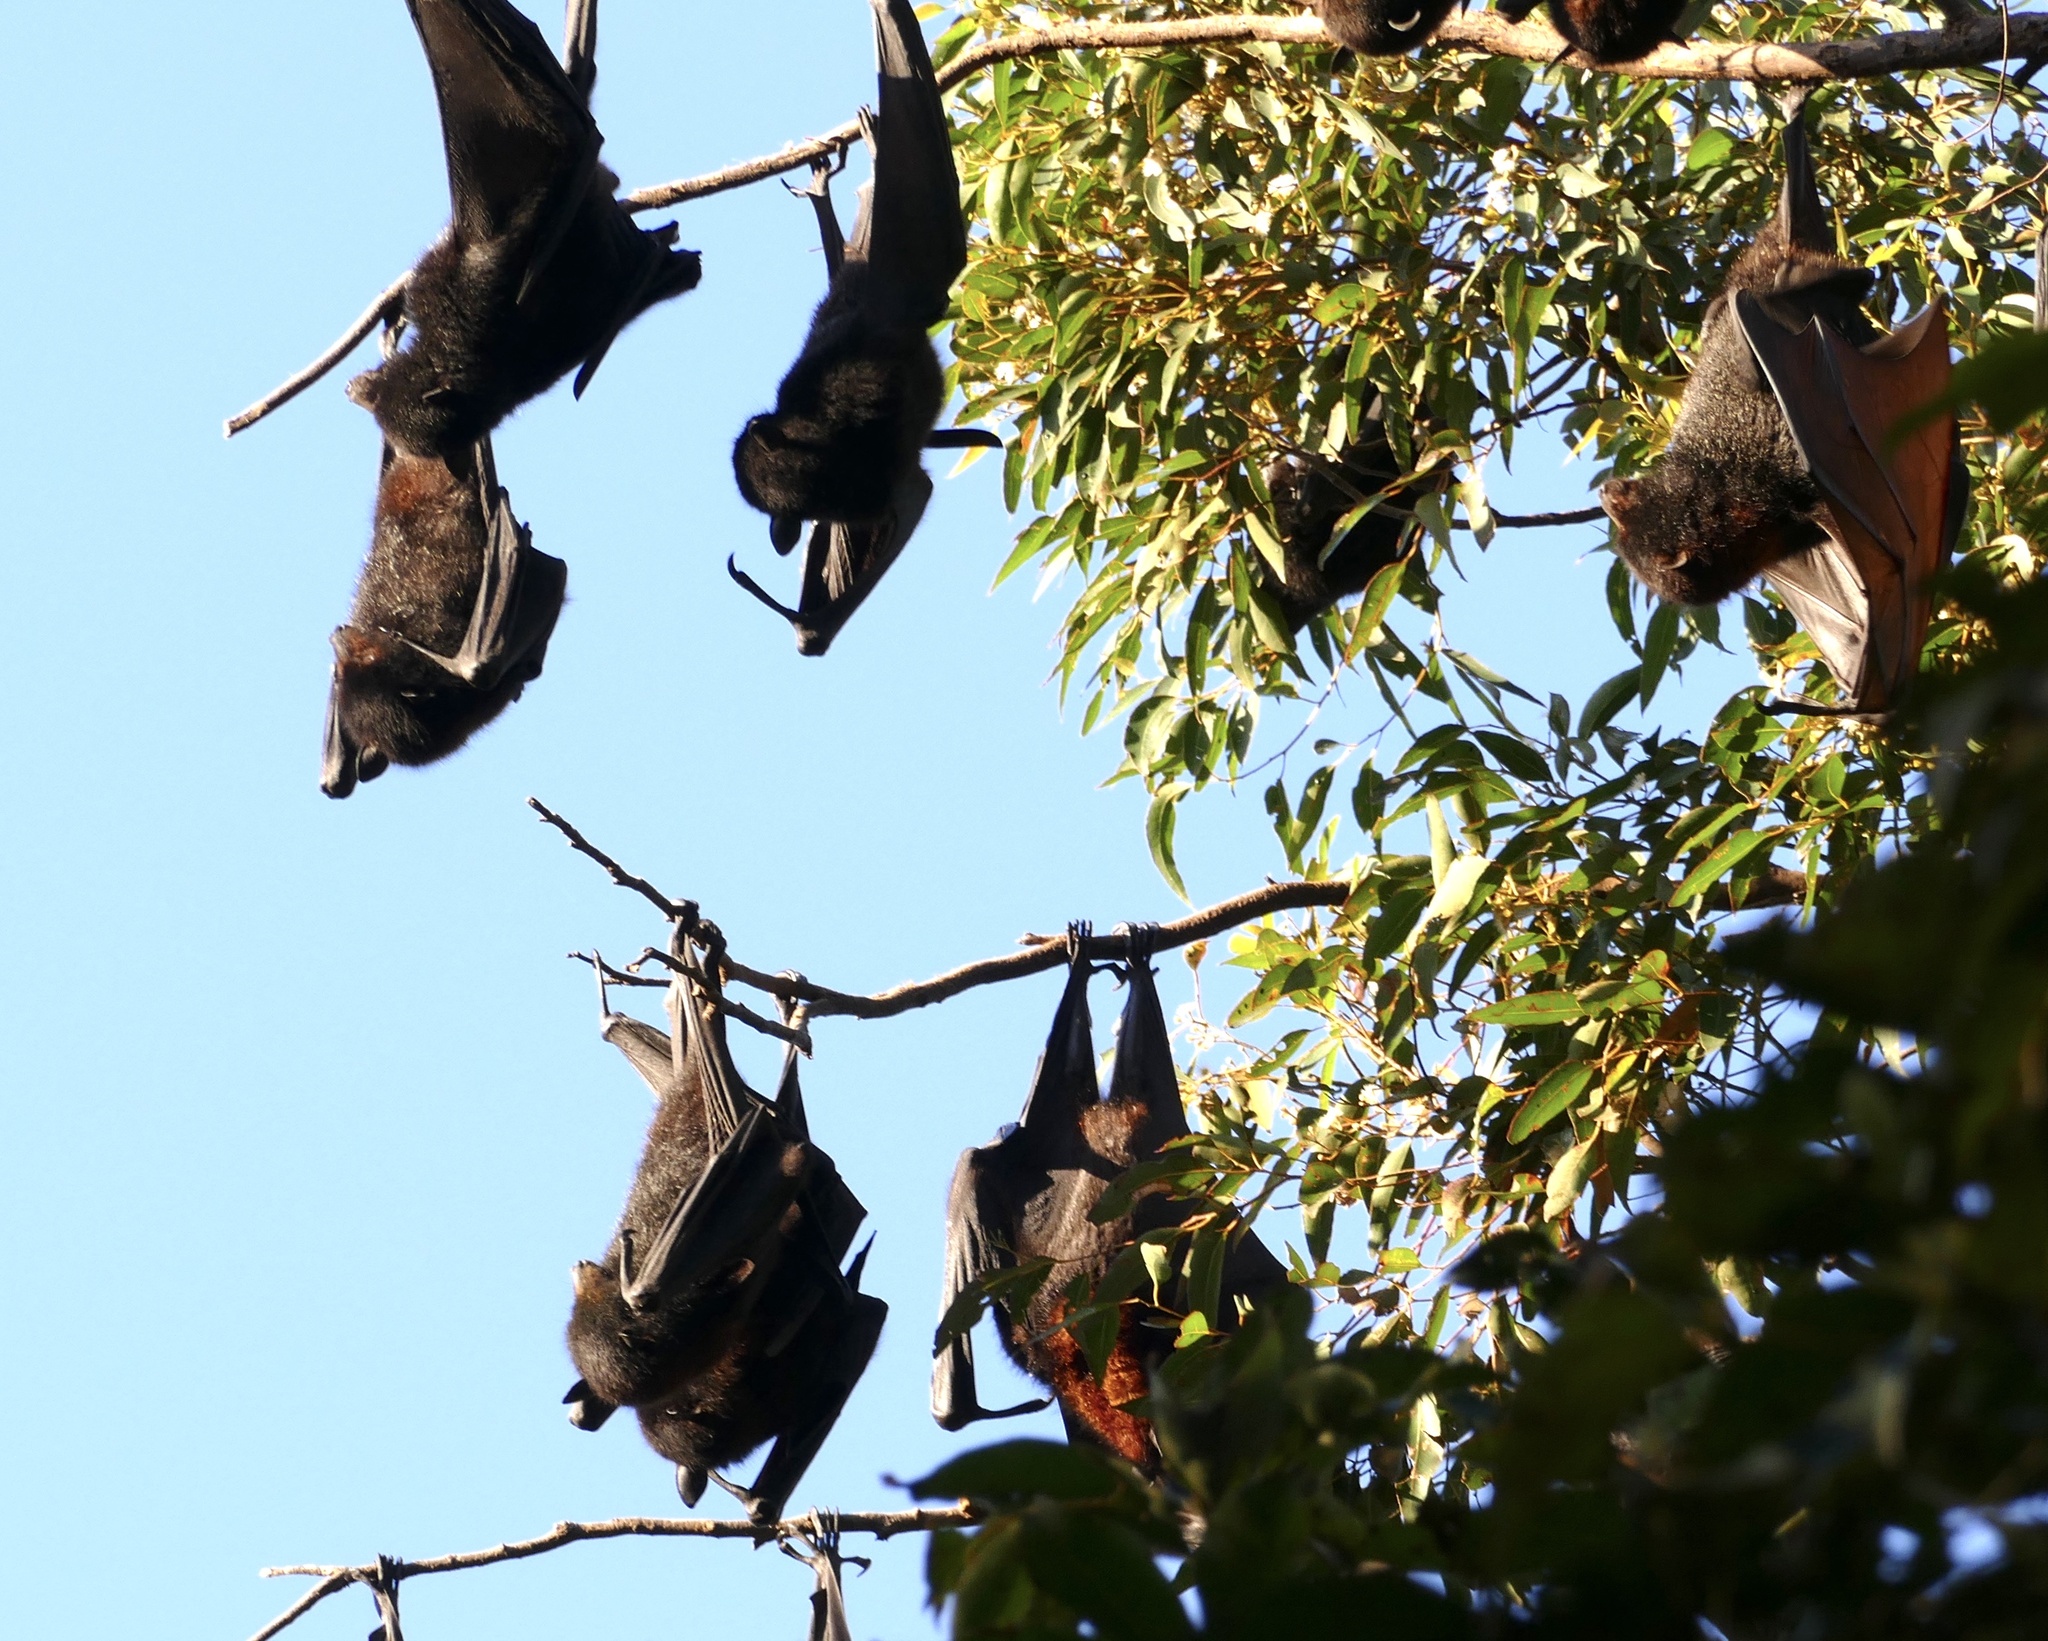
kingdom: Animalia
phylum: Chordata
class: Mammalia
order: Chiroptera
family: Pteropodidae
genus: Pteropus
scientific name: Pteropus alecto
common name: Black flying fox
